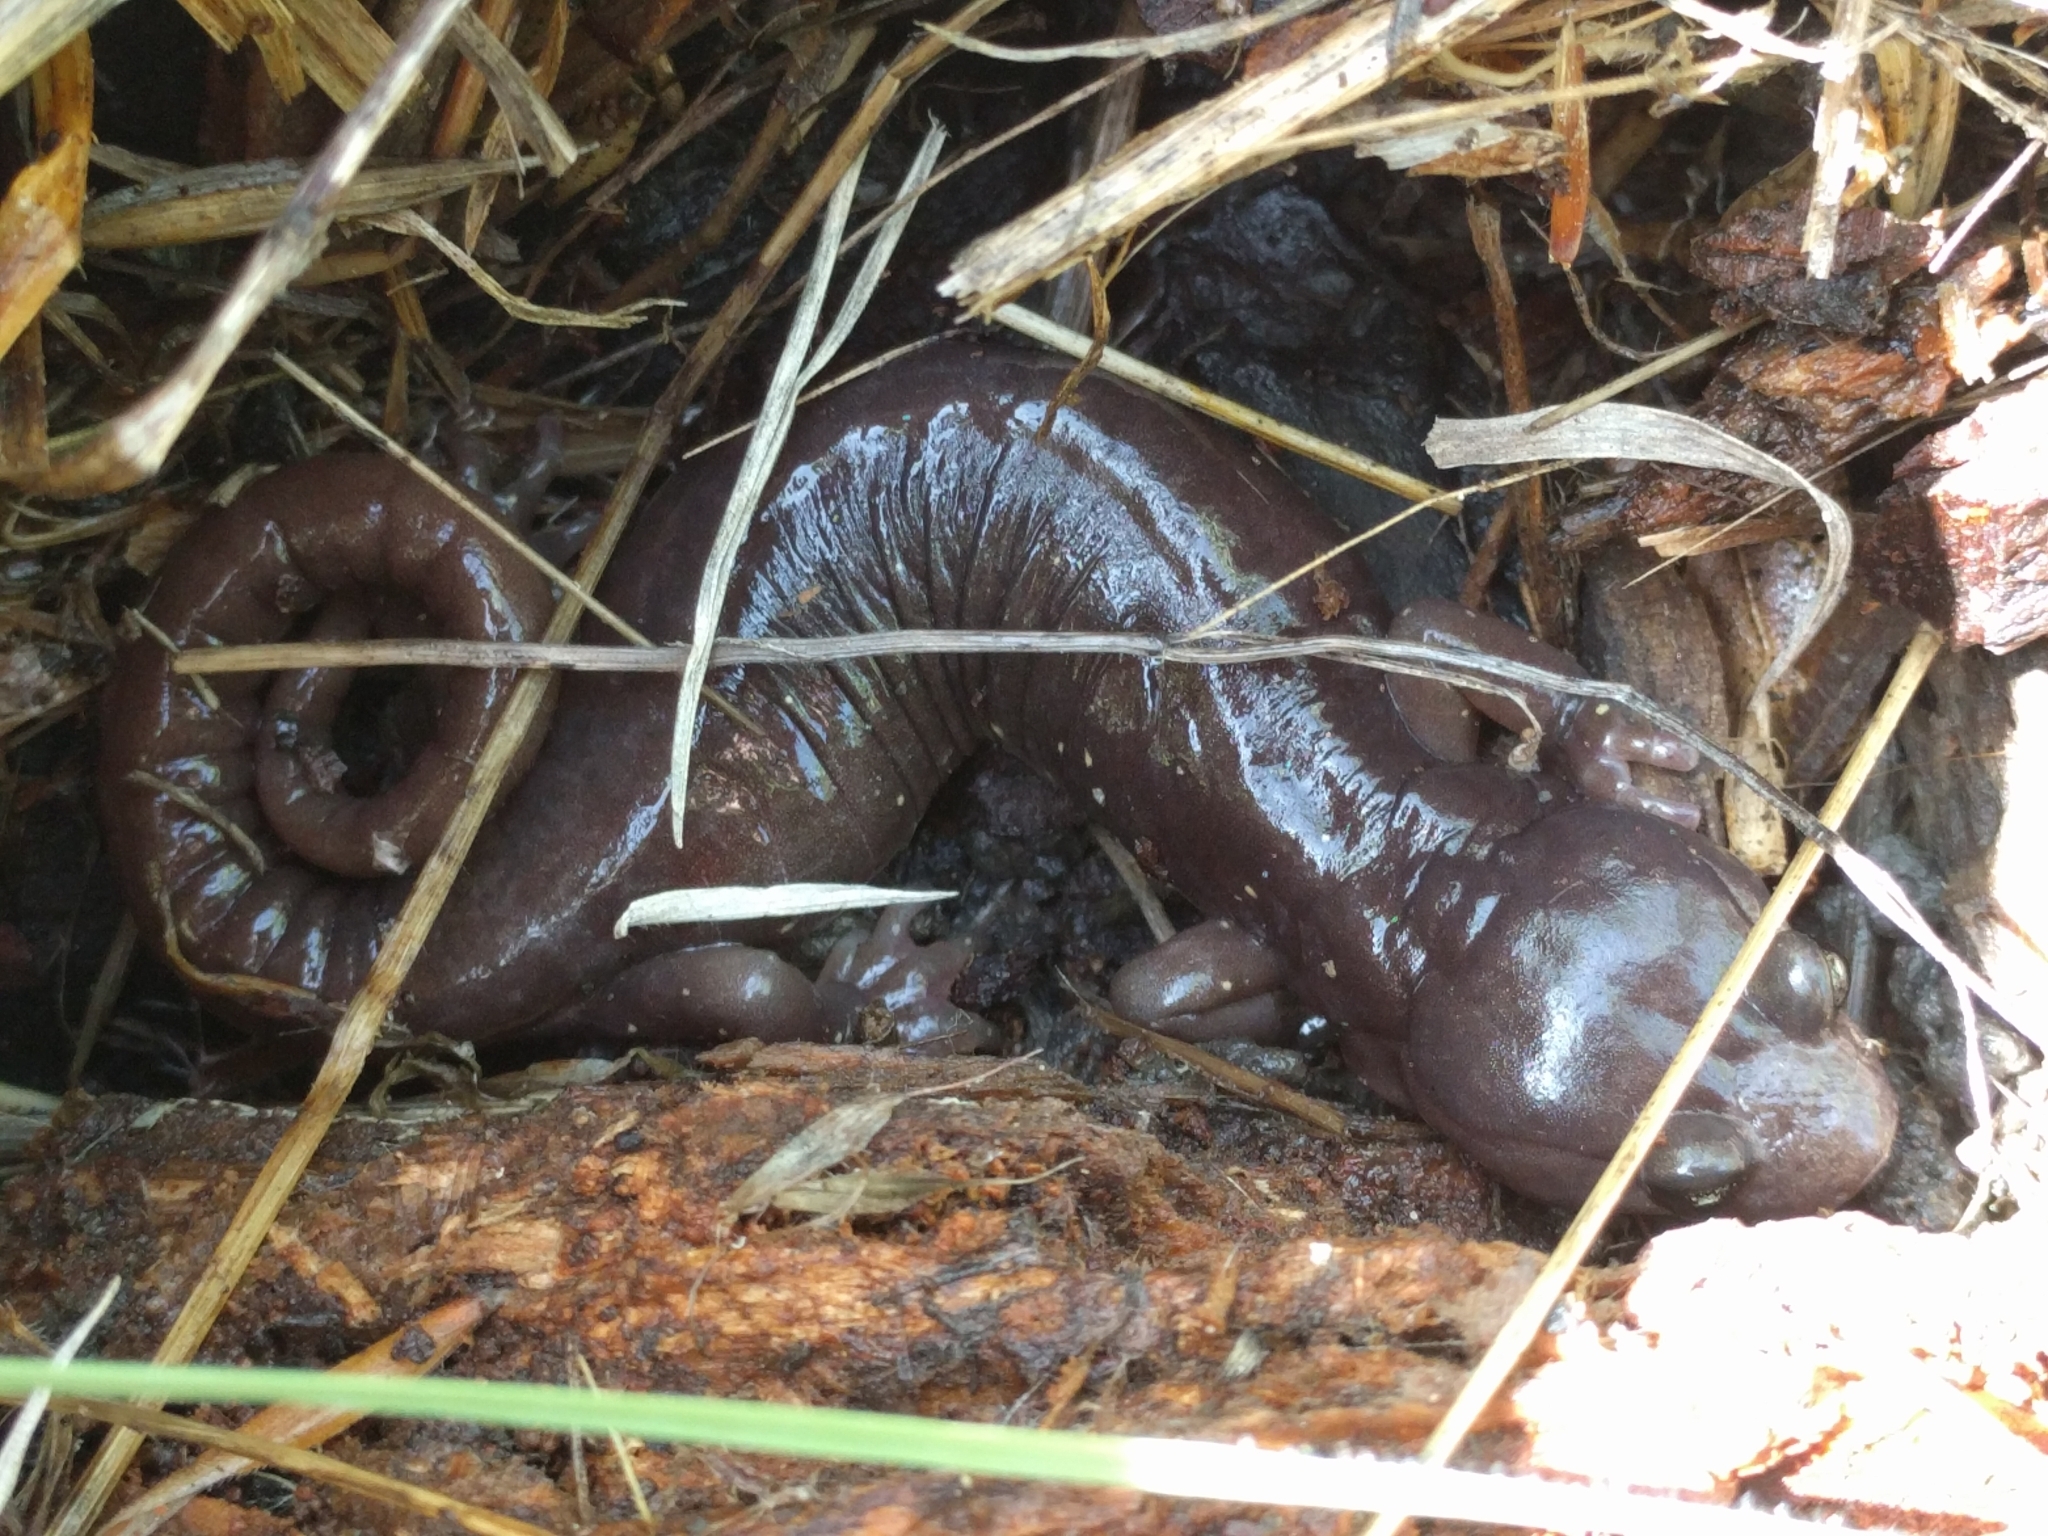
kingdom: Animalia
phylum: Chordata
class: Amphibia
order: Caudata
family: Plethodontidae
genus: Aneides
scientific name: Aneides lugubris
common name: Arboreal salamander
